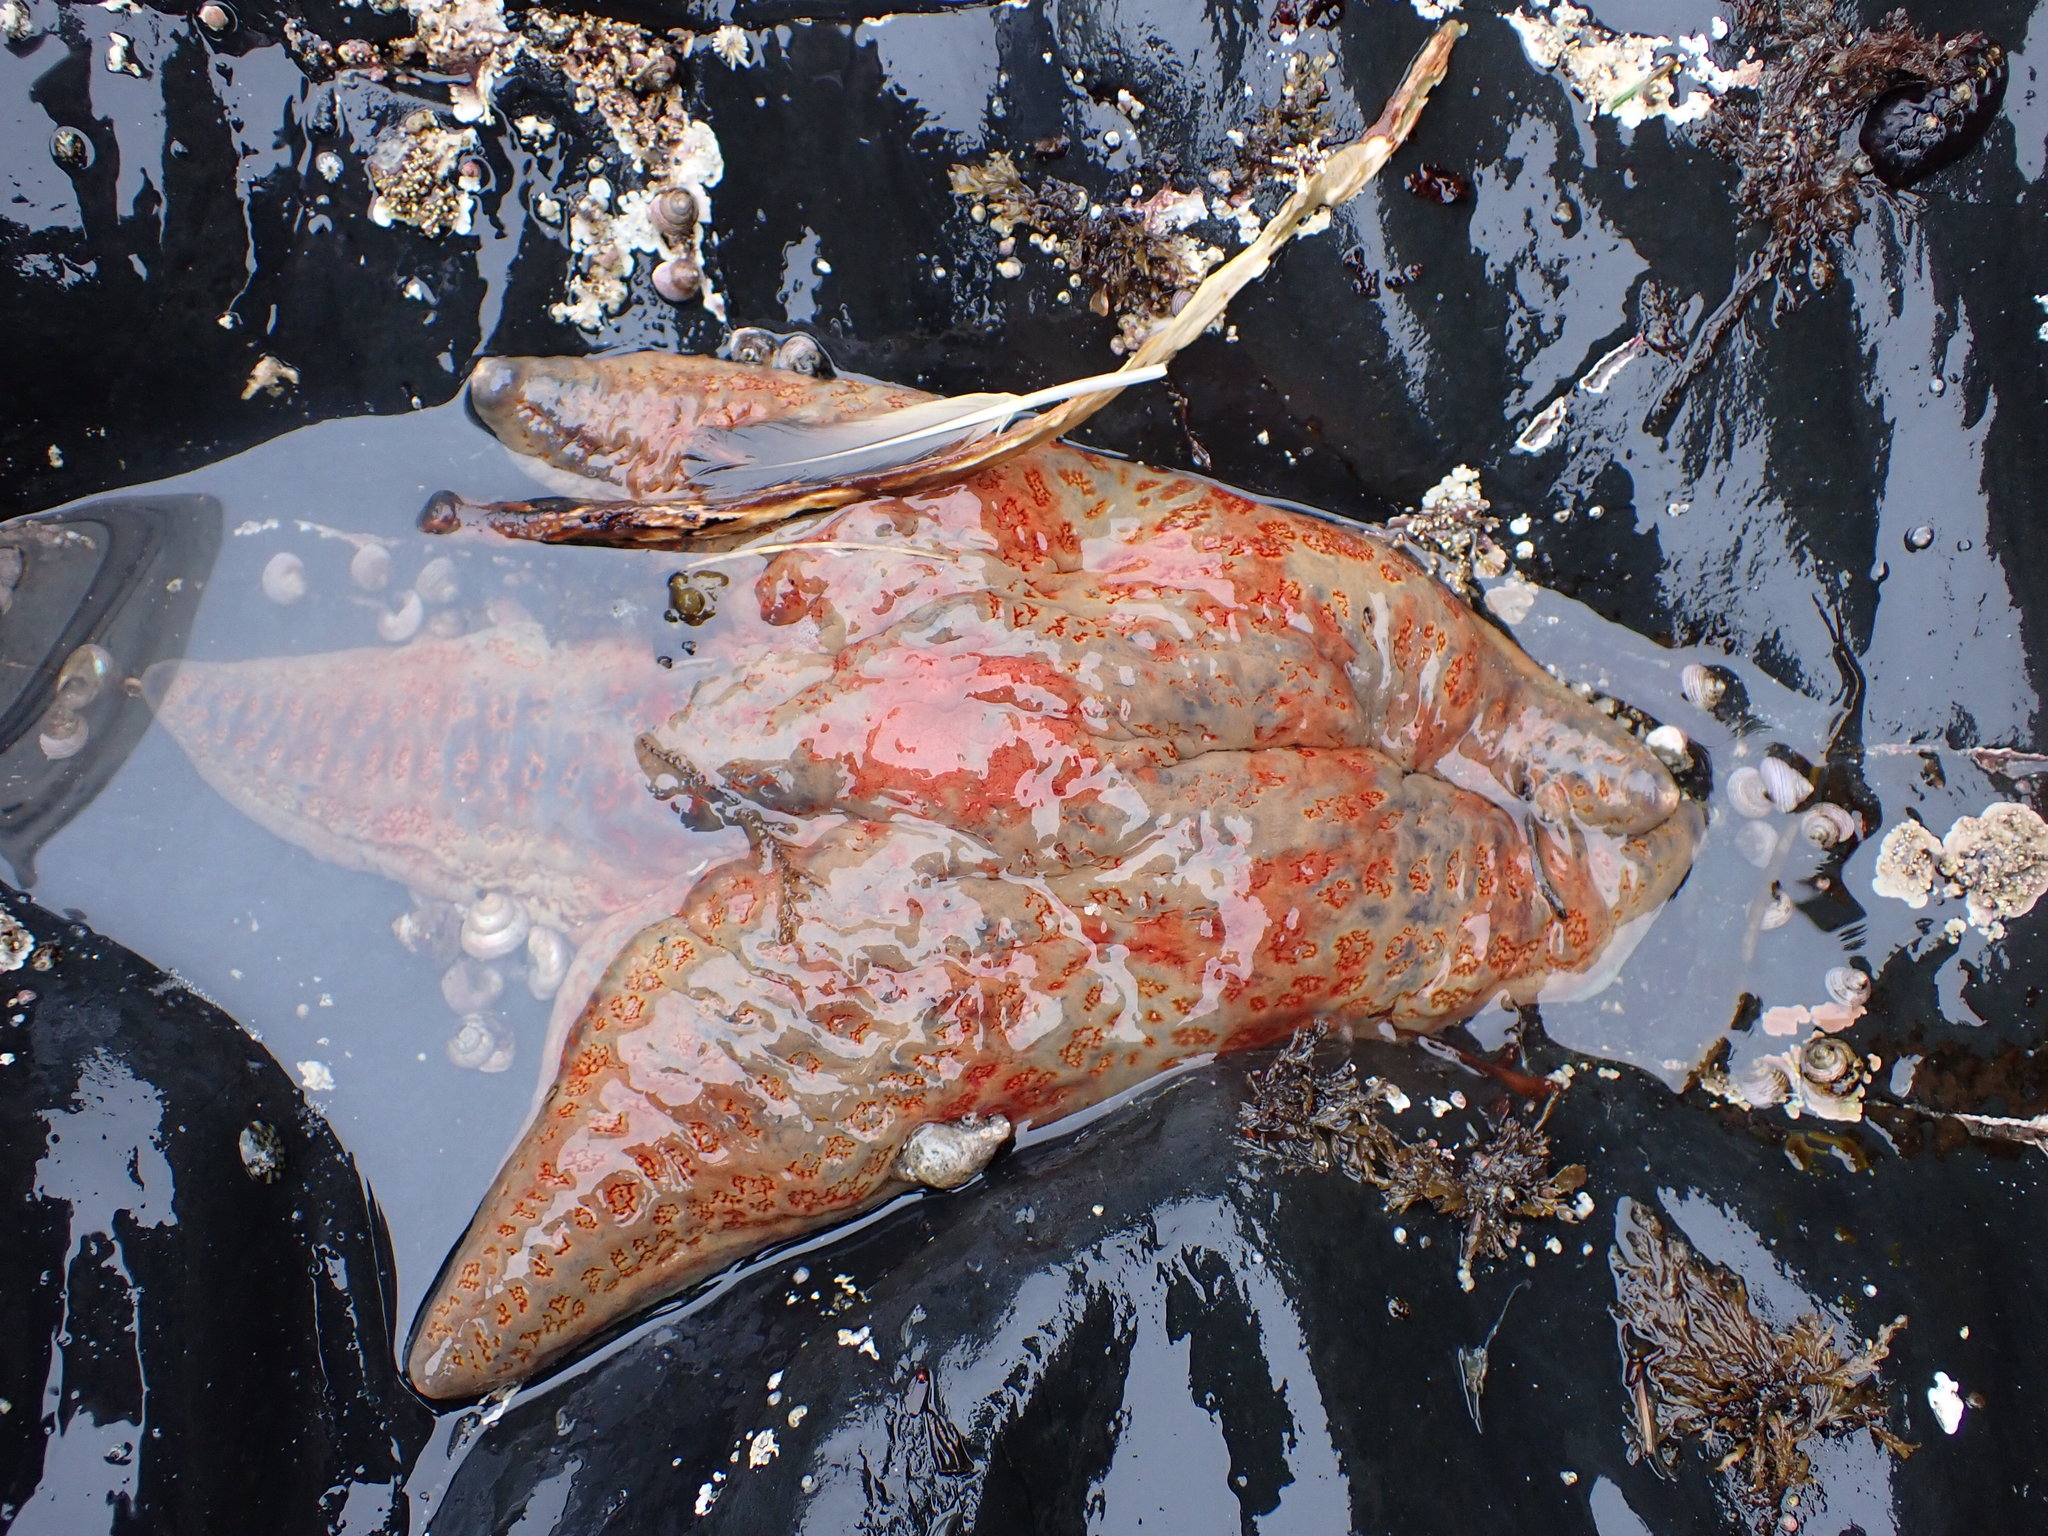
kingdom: Animalia
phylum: Echinodermata
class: Asteroidea
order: Valvatida
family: Asteropseidae
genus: Dermasterias
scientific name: Dermasterias imbricata
